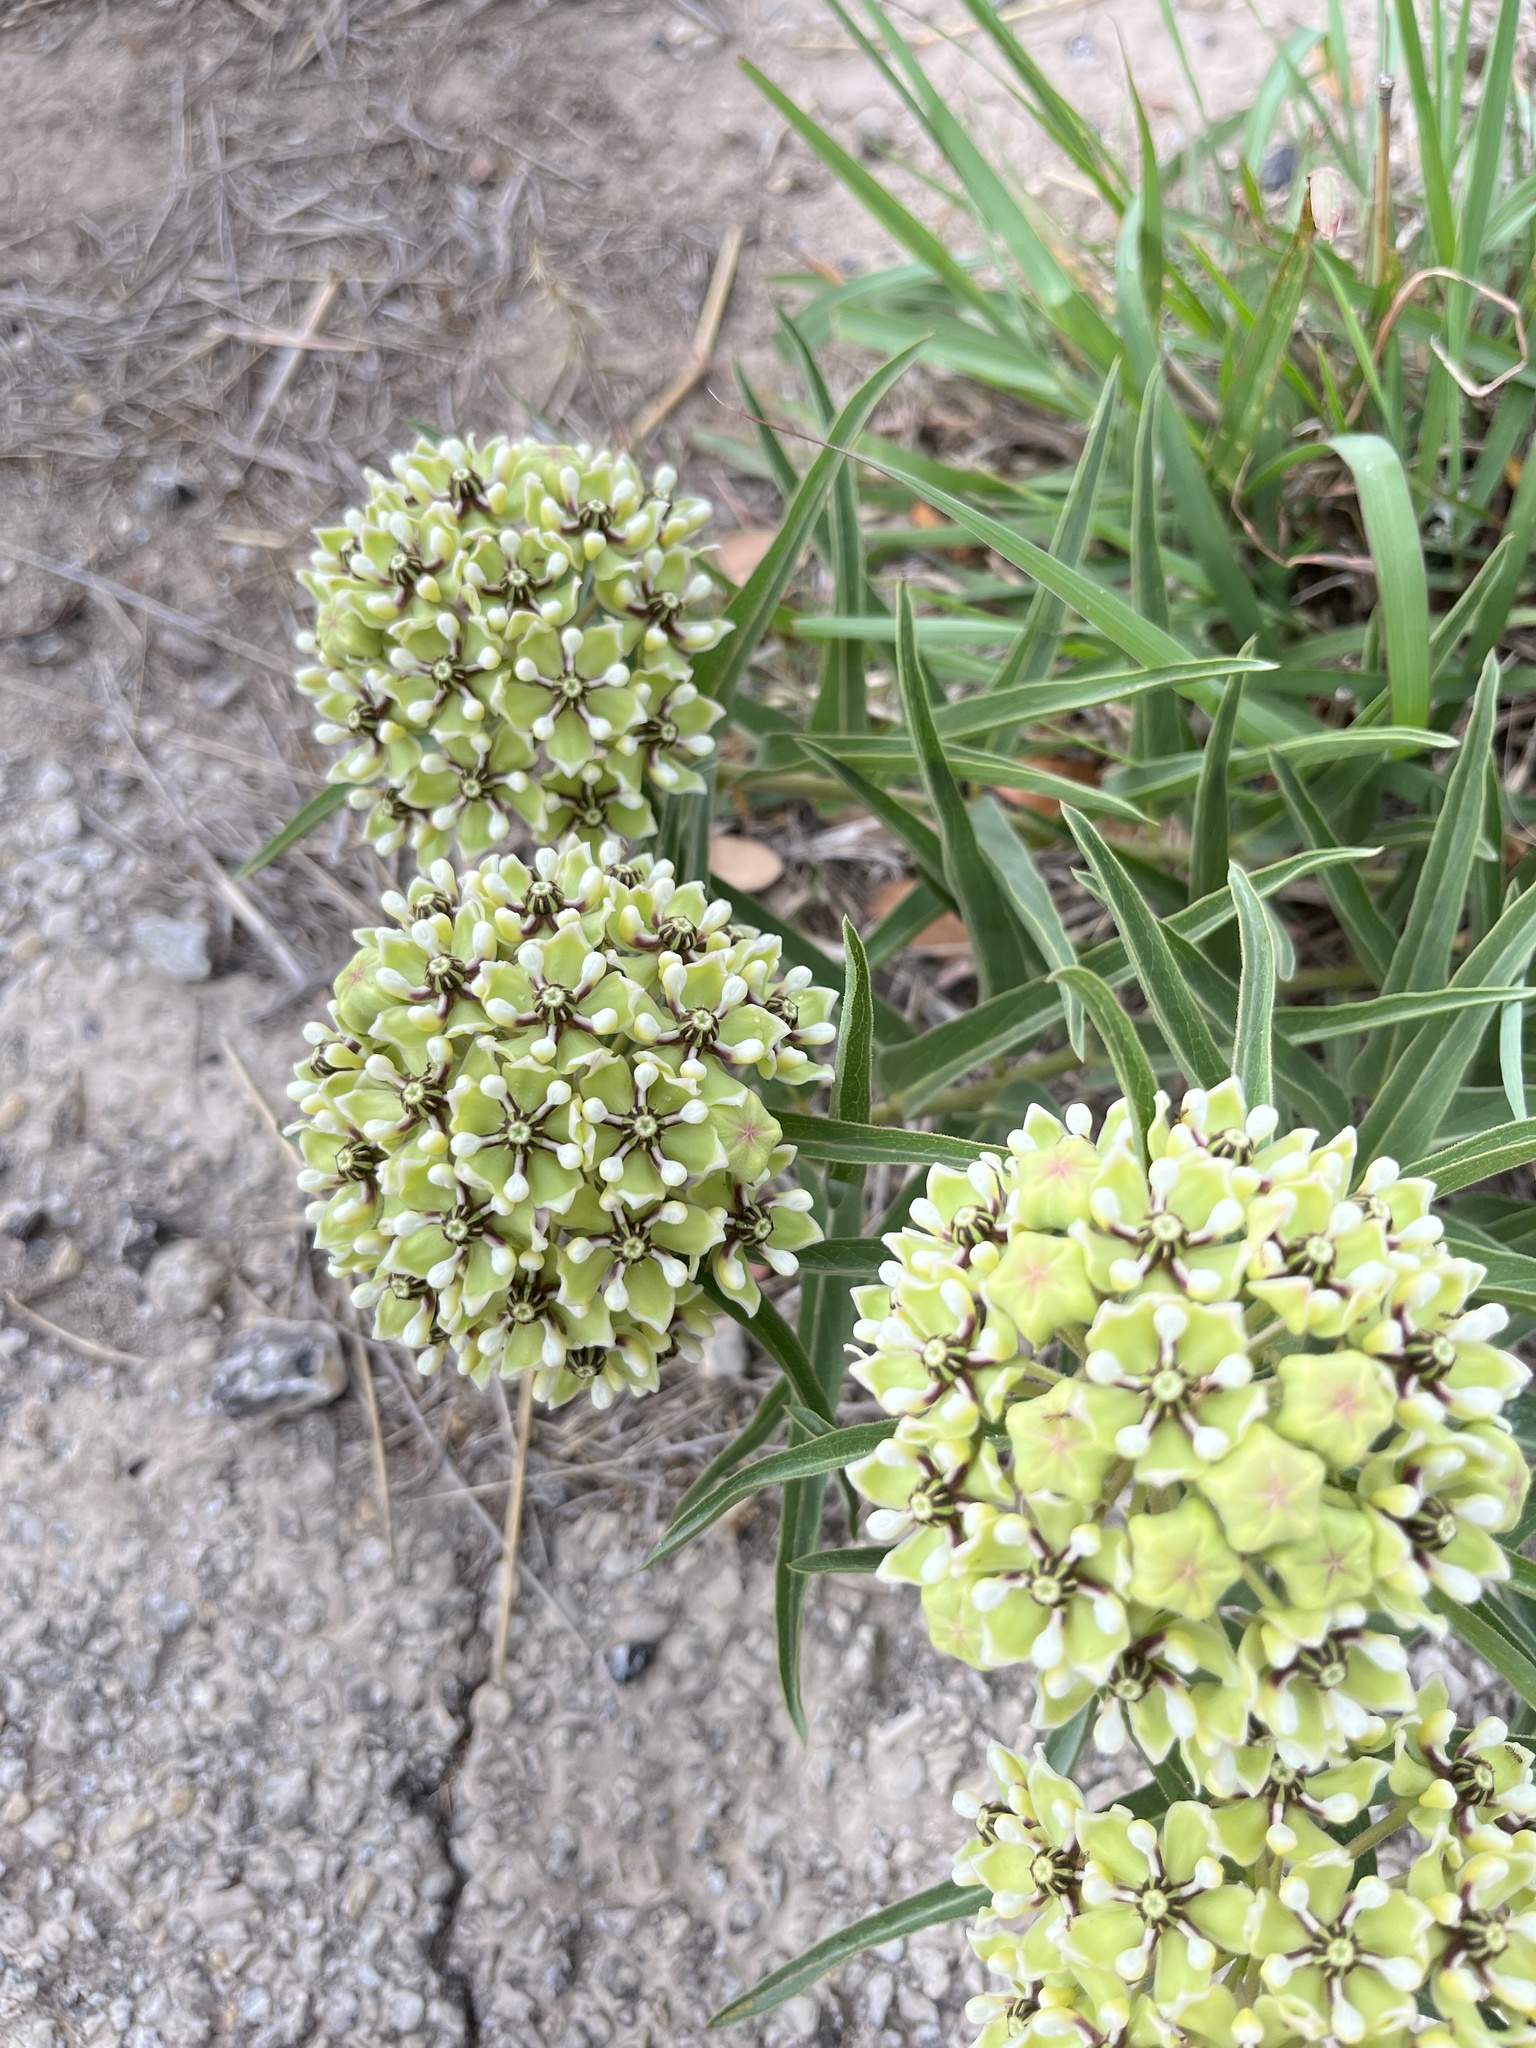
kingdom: Plantae
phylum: Tracheophyta
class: Magnoliopsida
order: Gentianales
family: Apocynaceae
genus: Asclepias
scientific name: Asclepias asperula
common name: Antelope horns
